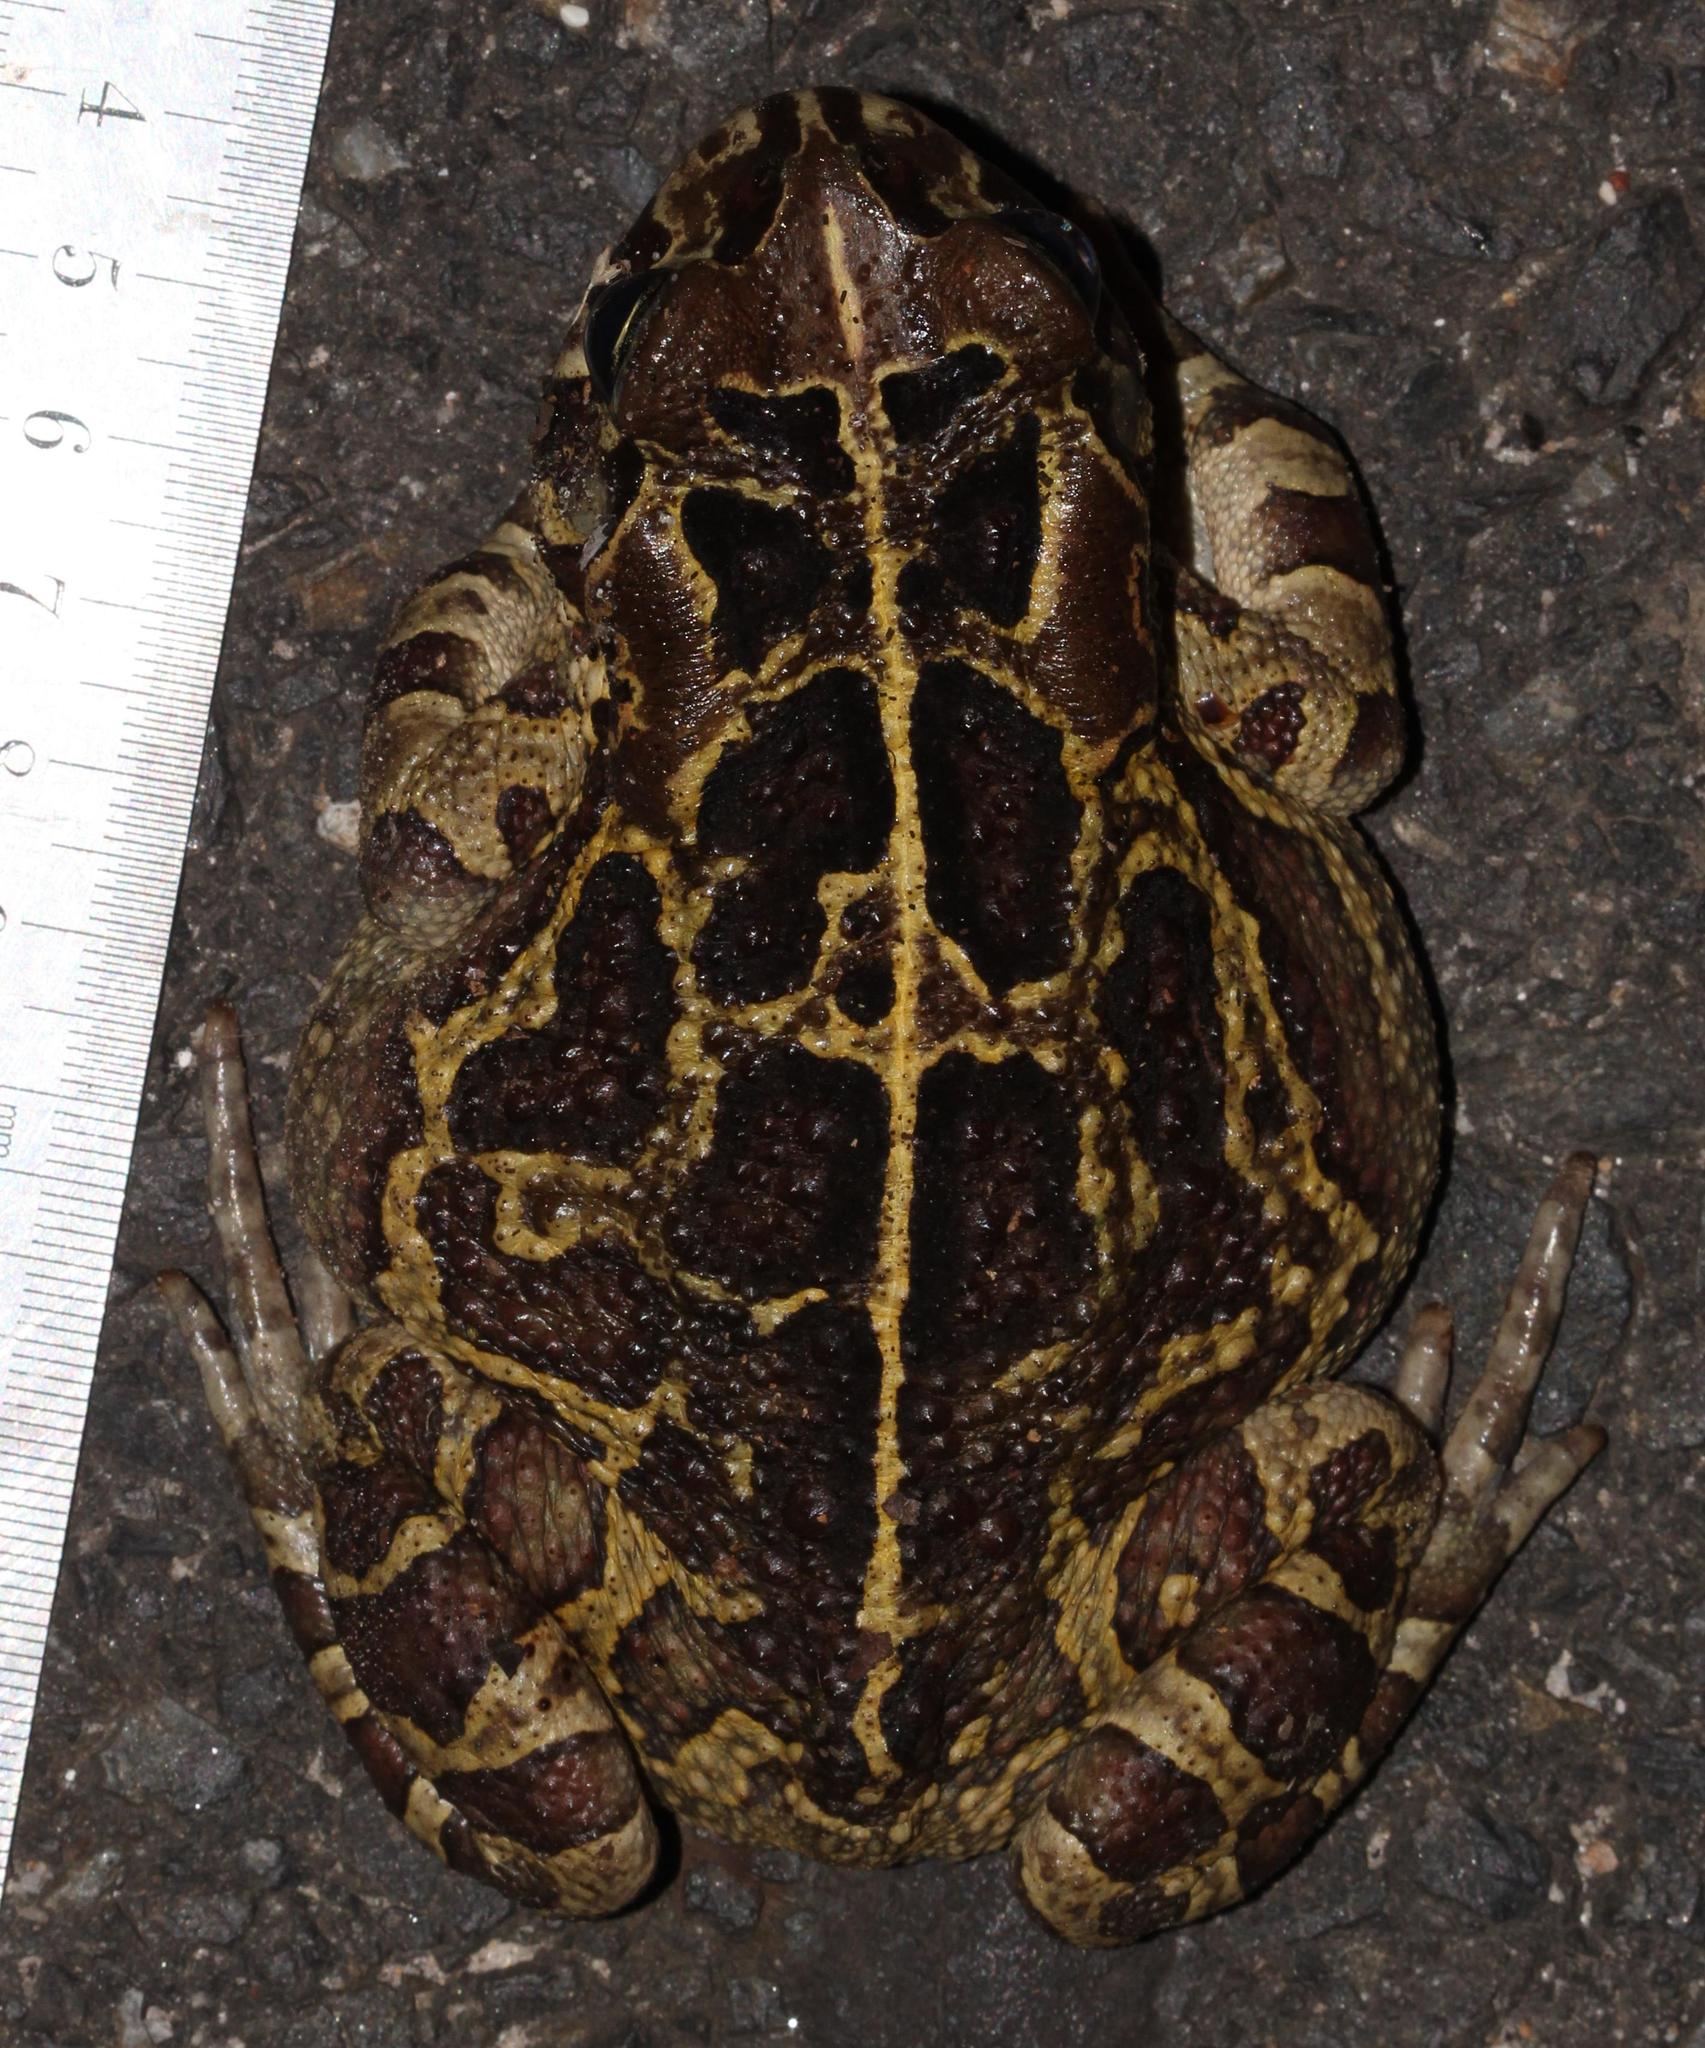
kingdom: Animalia
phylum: Chordata
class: Amphibia
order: Anura
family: Bufonidae
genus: Sclerophrys
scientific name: Sclerophrys pantherina
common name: Panther toad
